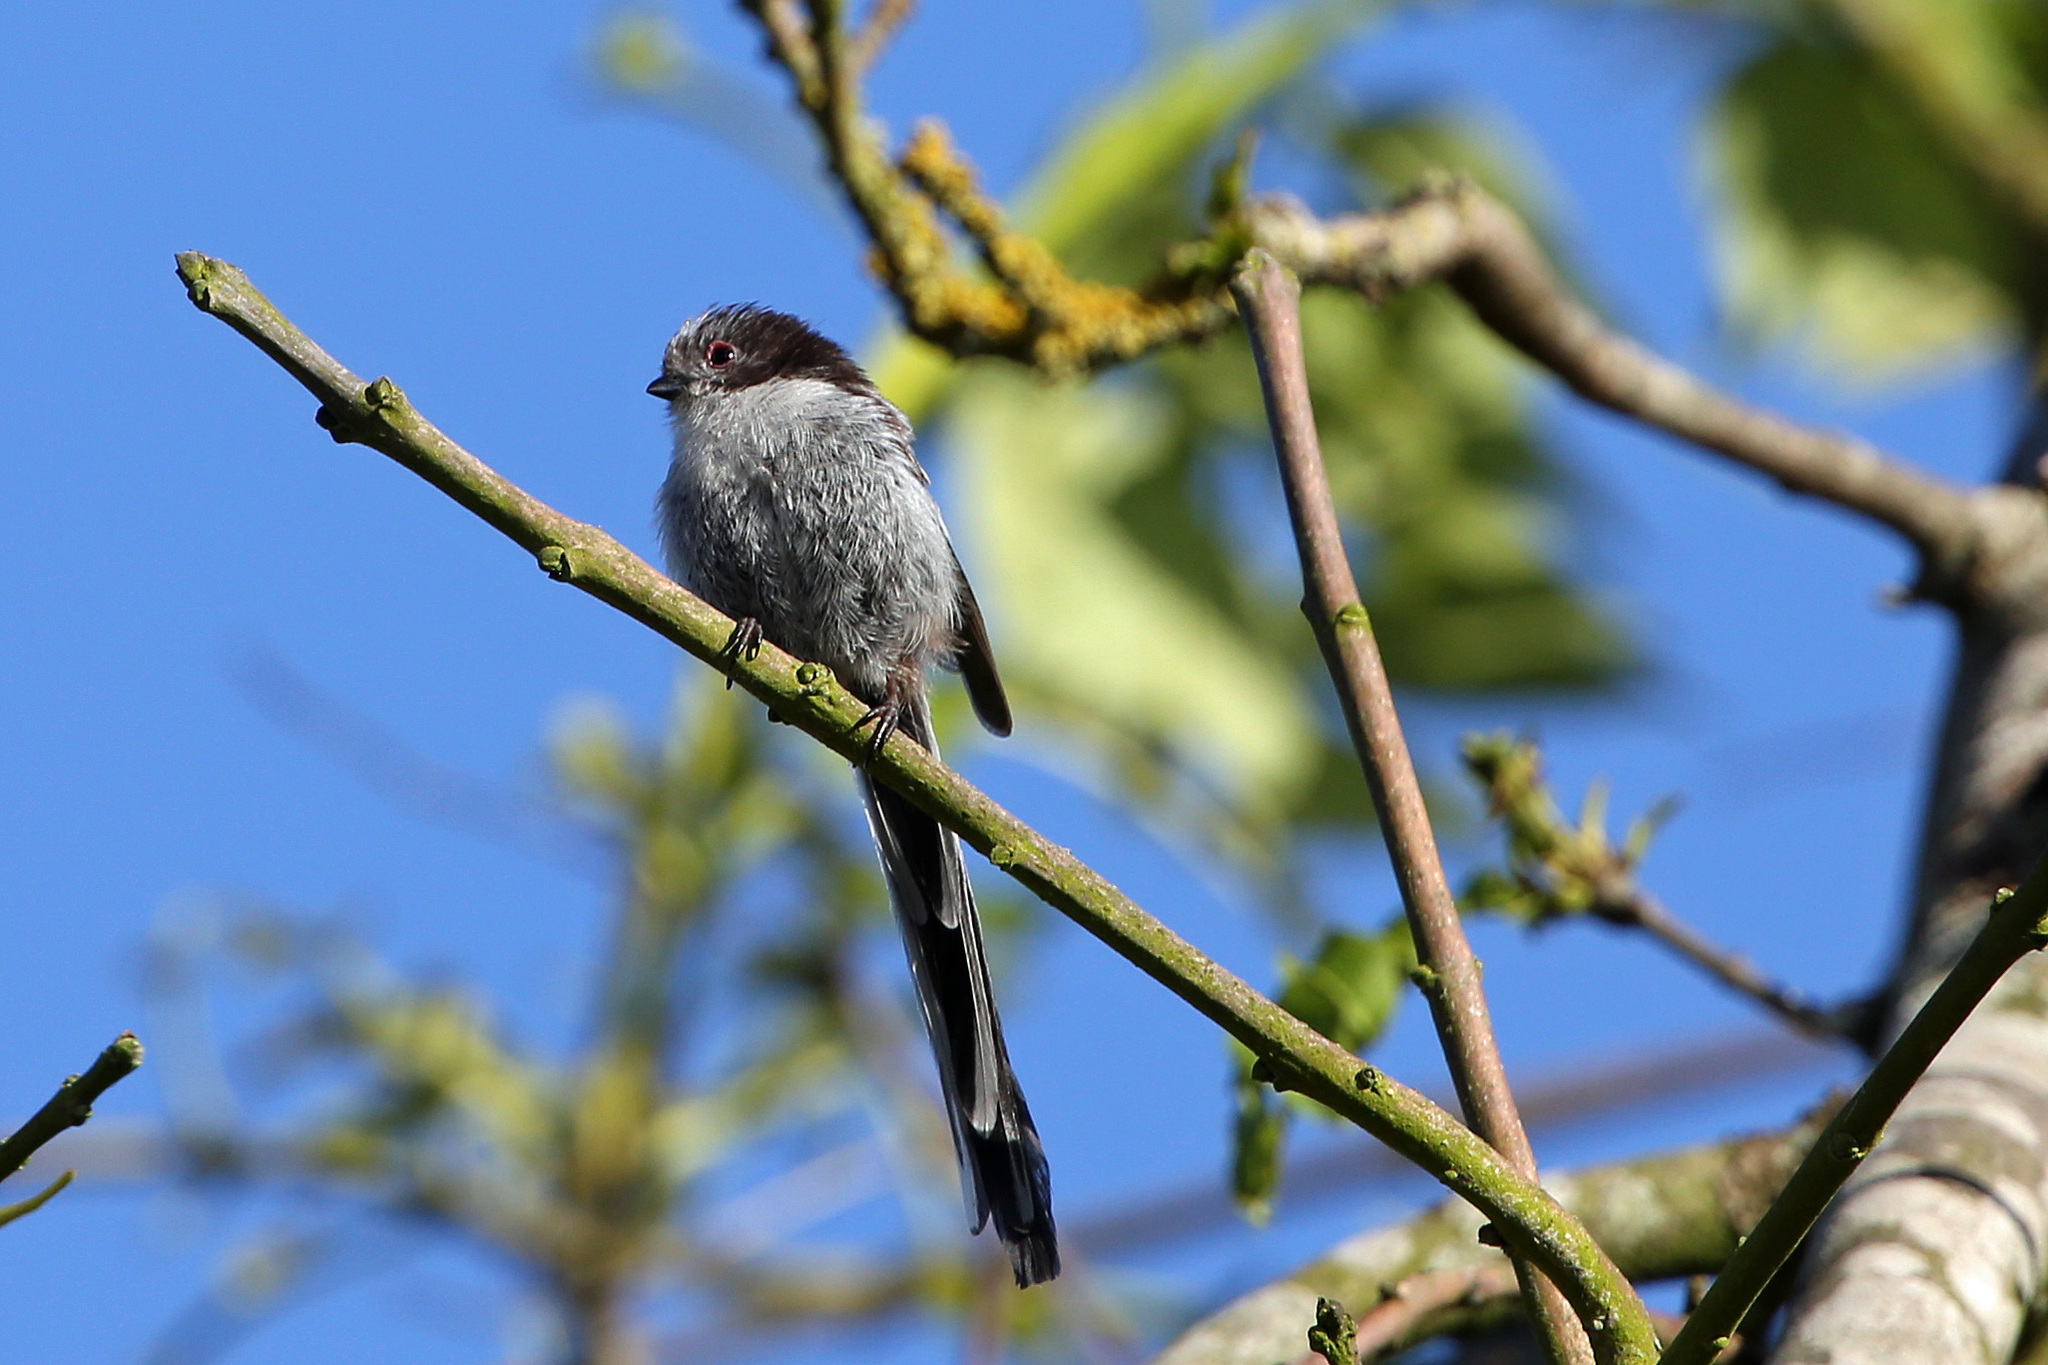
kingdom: Animalia
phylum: Chordata
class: Aves
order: Passeriformes
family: Aegithalidae
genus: Aegithalos
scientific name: Aegithalos caudatus
